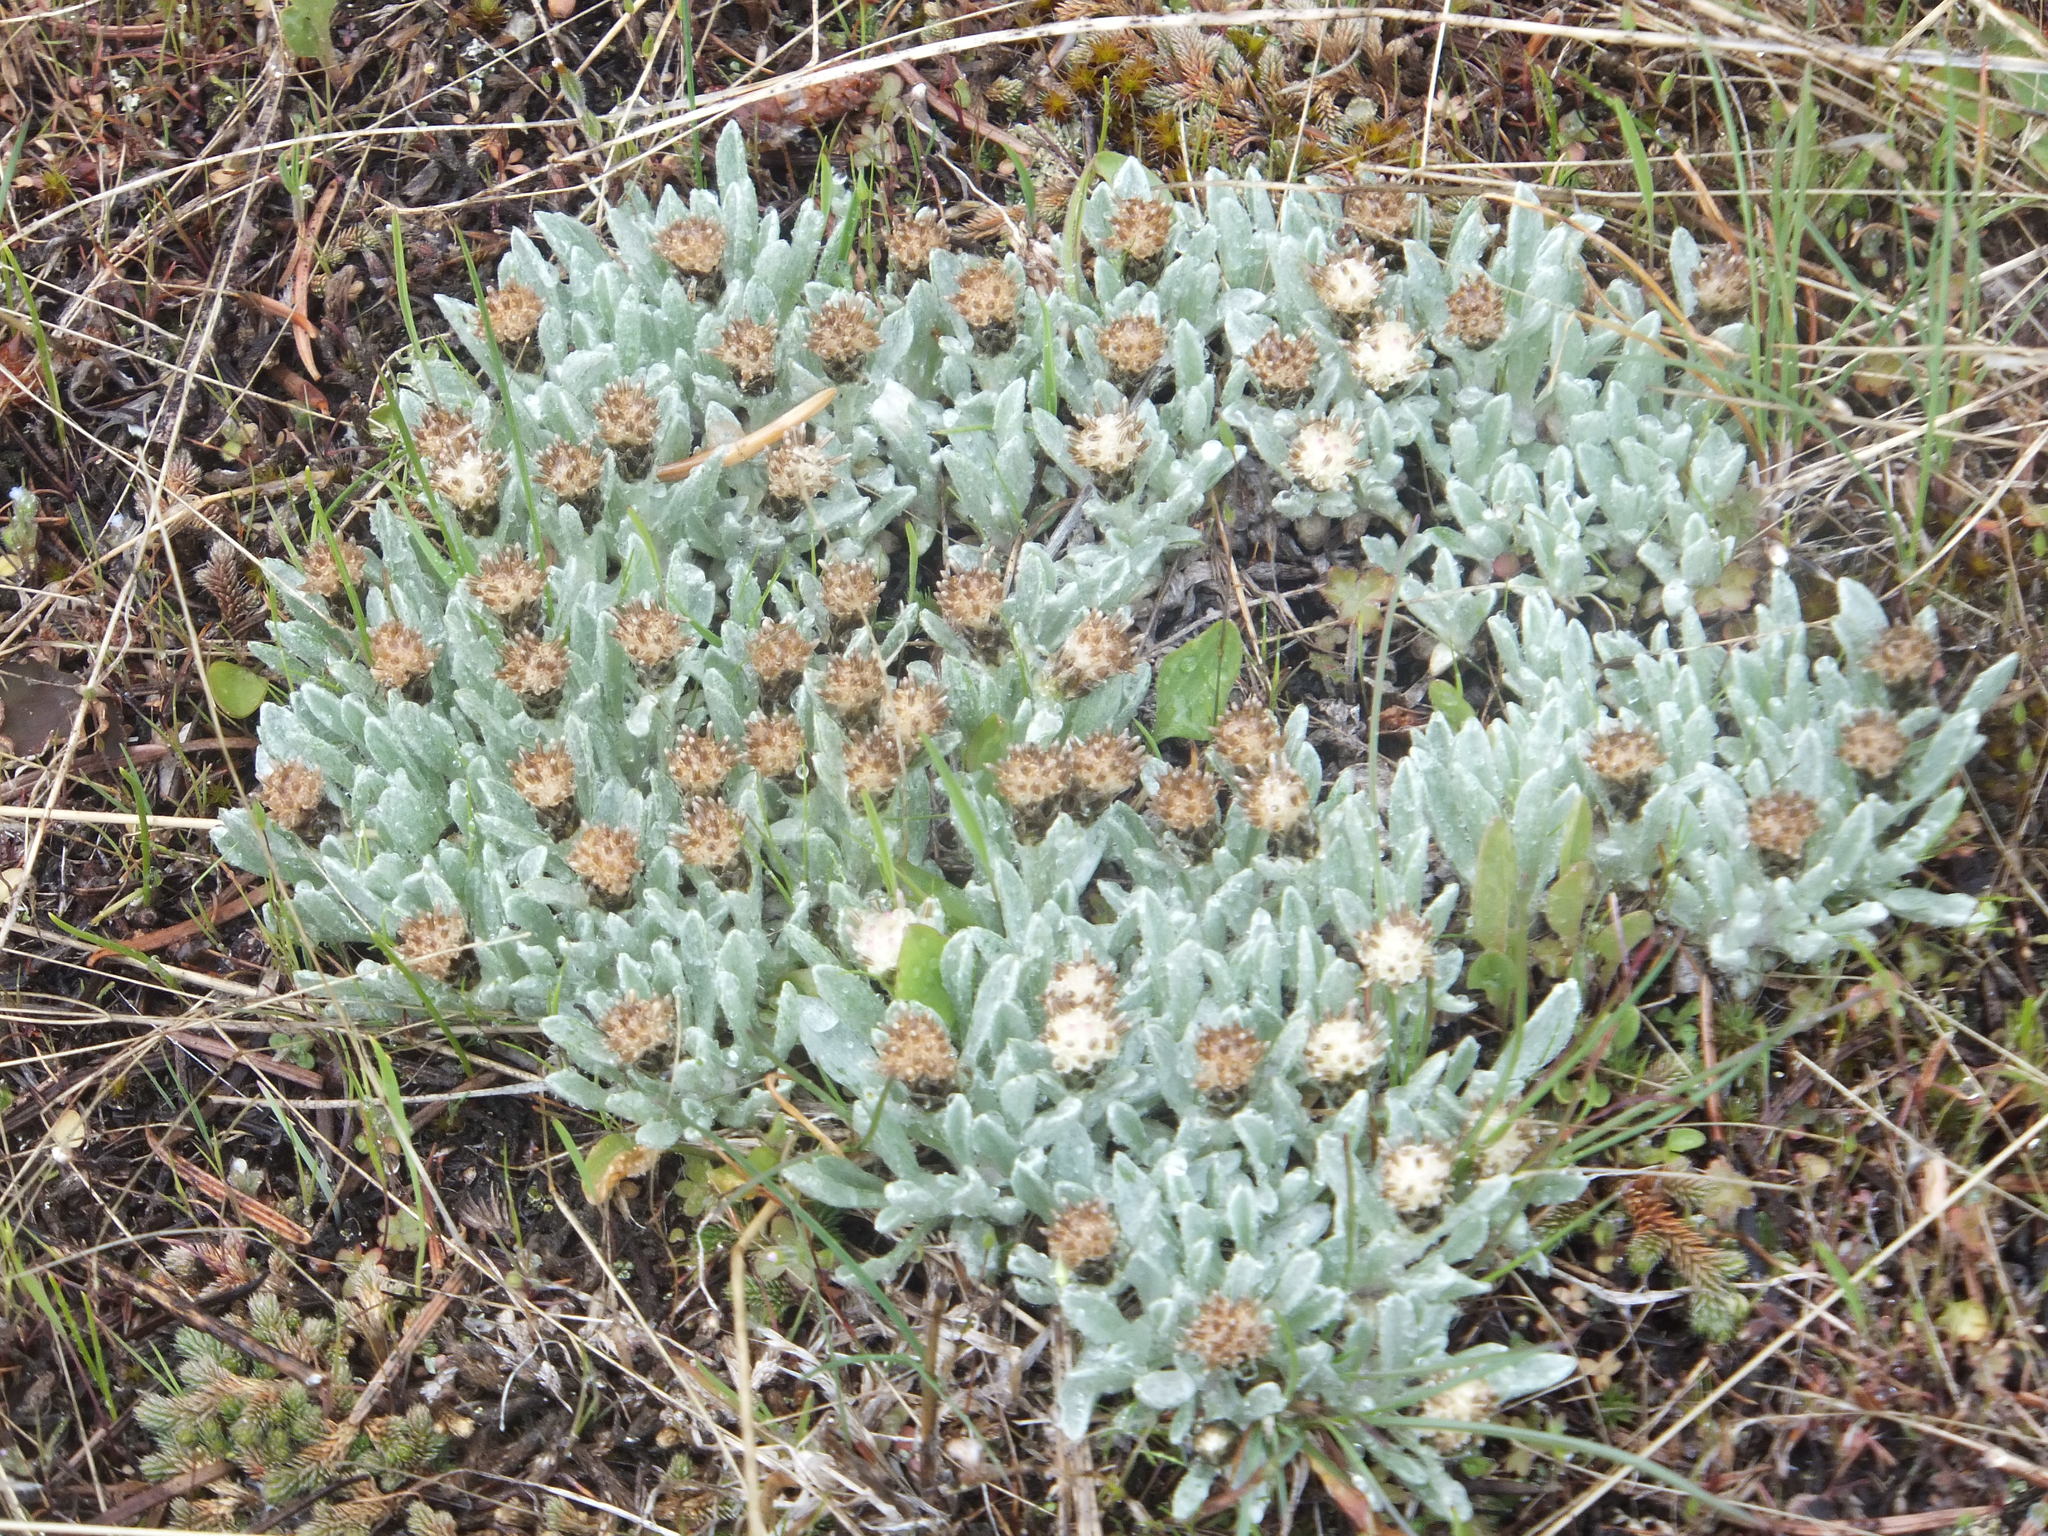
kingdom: Plantae
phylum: Tracheophyta
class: Magnoliopsida
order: Asterales
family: Asteraceae
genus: Antennaria
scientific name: Antennaria dimorpha
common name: Cushion pussytoes
